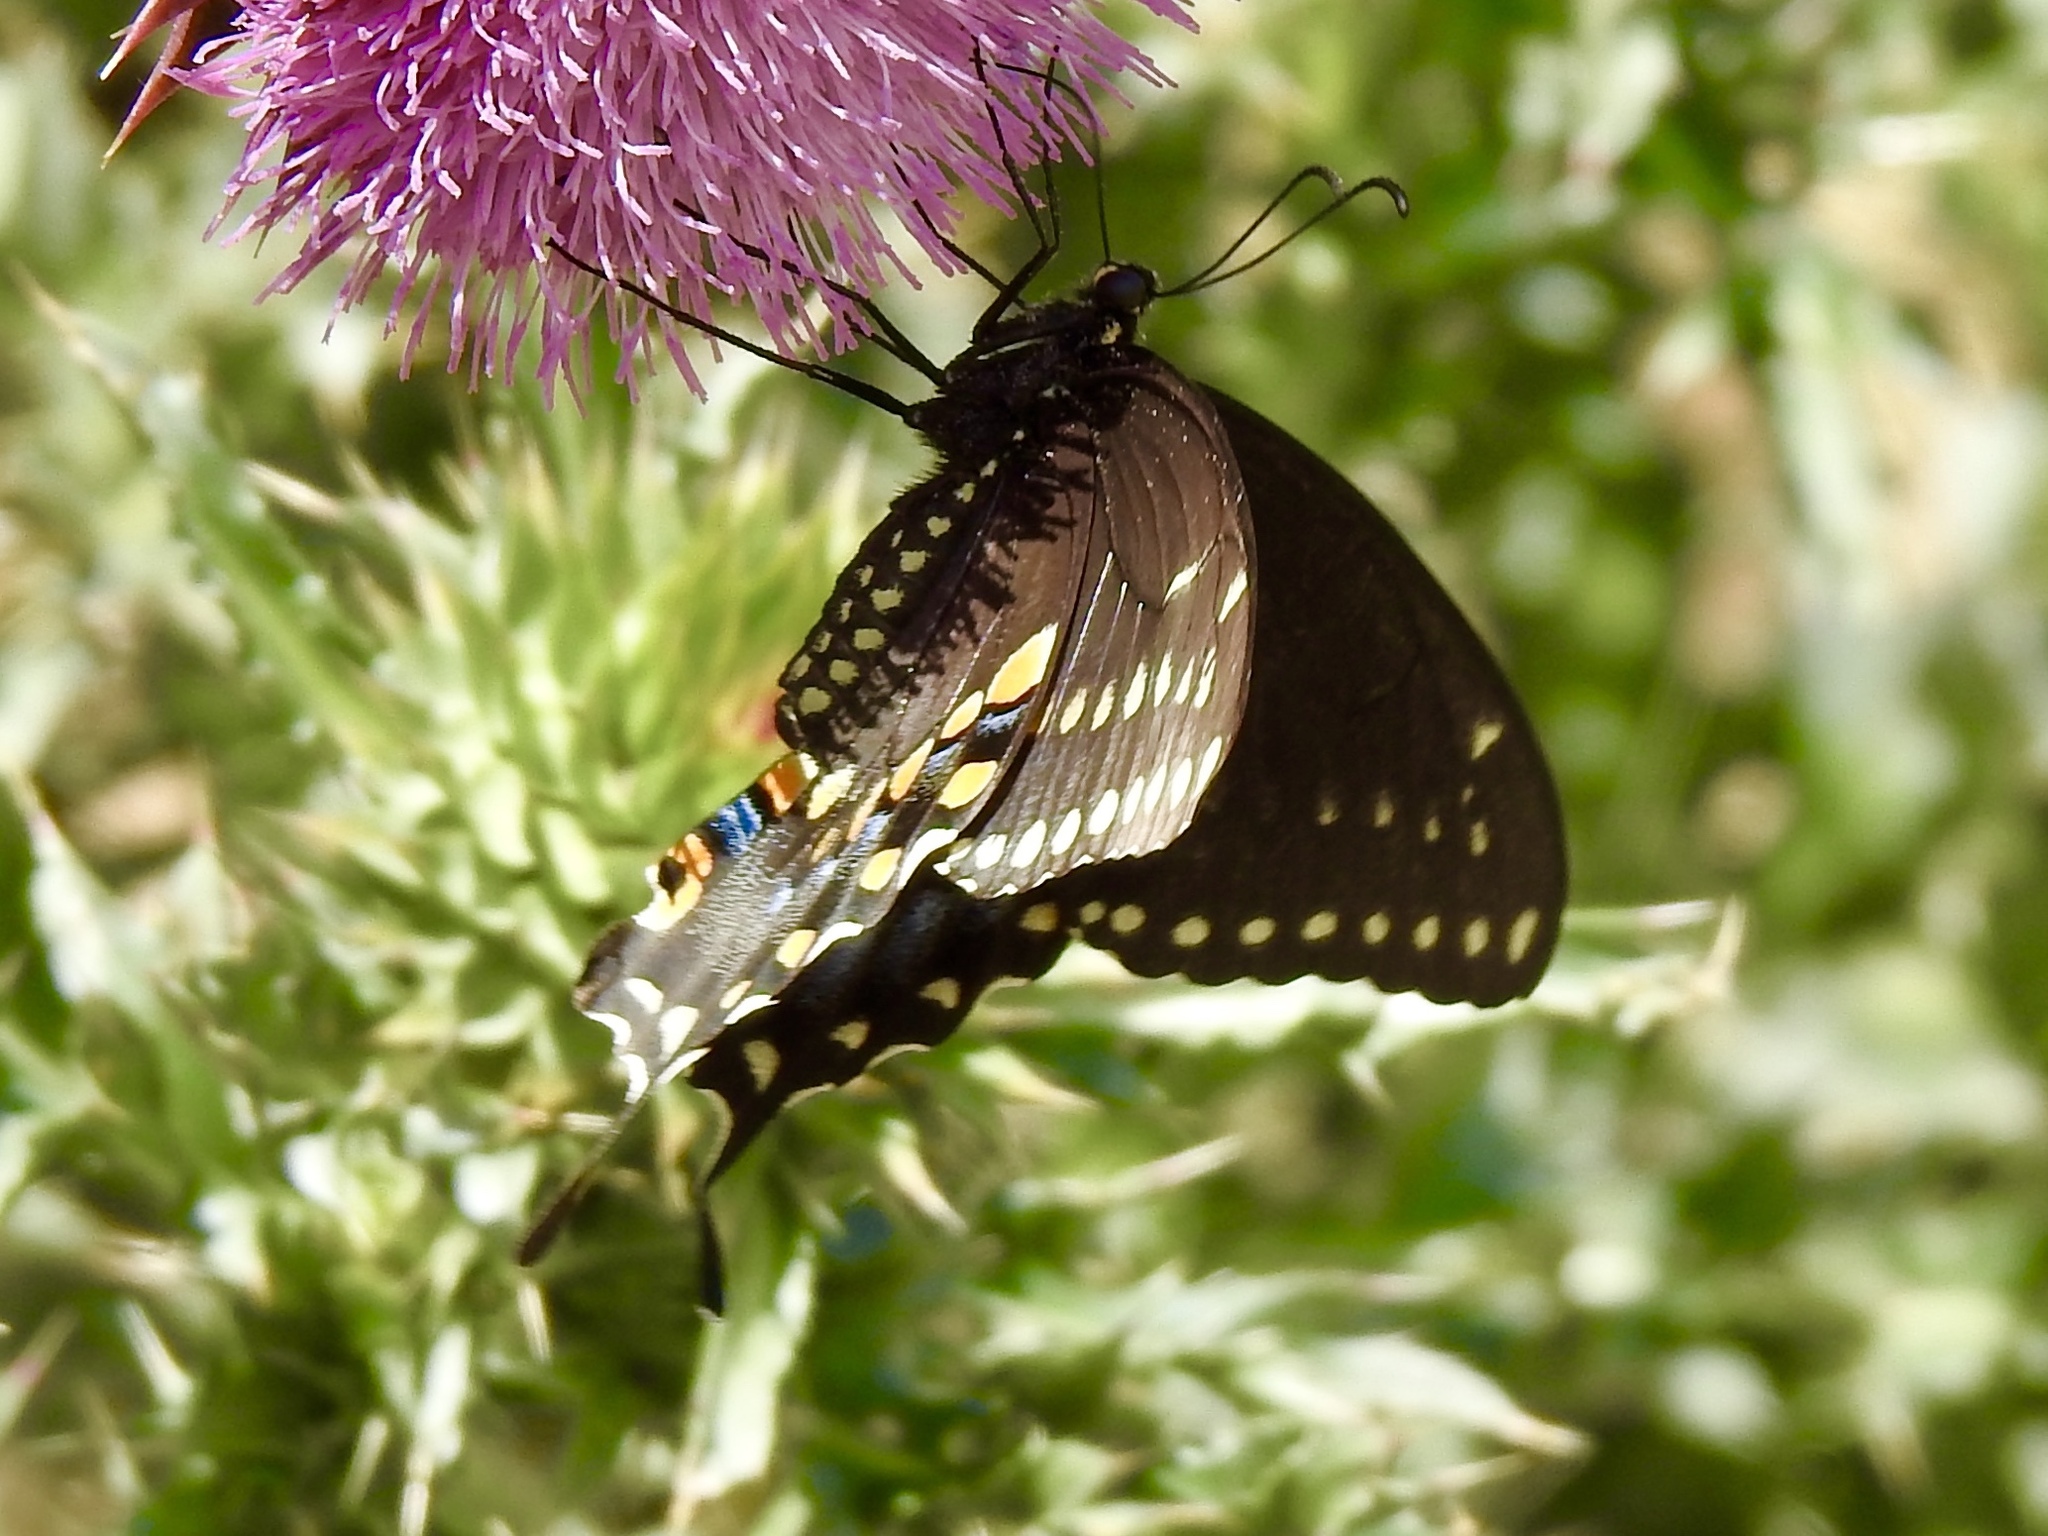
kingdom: Animalia
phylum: Arthropoda
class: Insecta
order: Lepidoptera
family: Papilionidae
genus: Papilio
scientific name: Papilio polyxenes
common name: Black swallowtail
